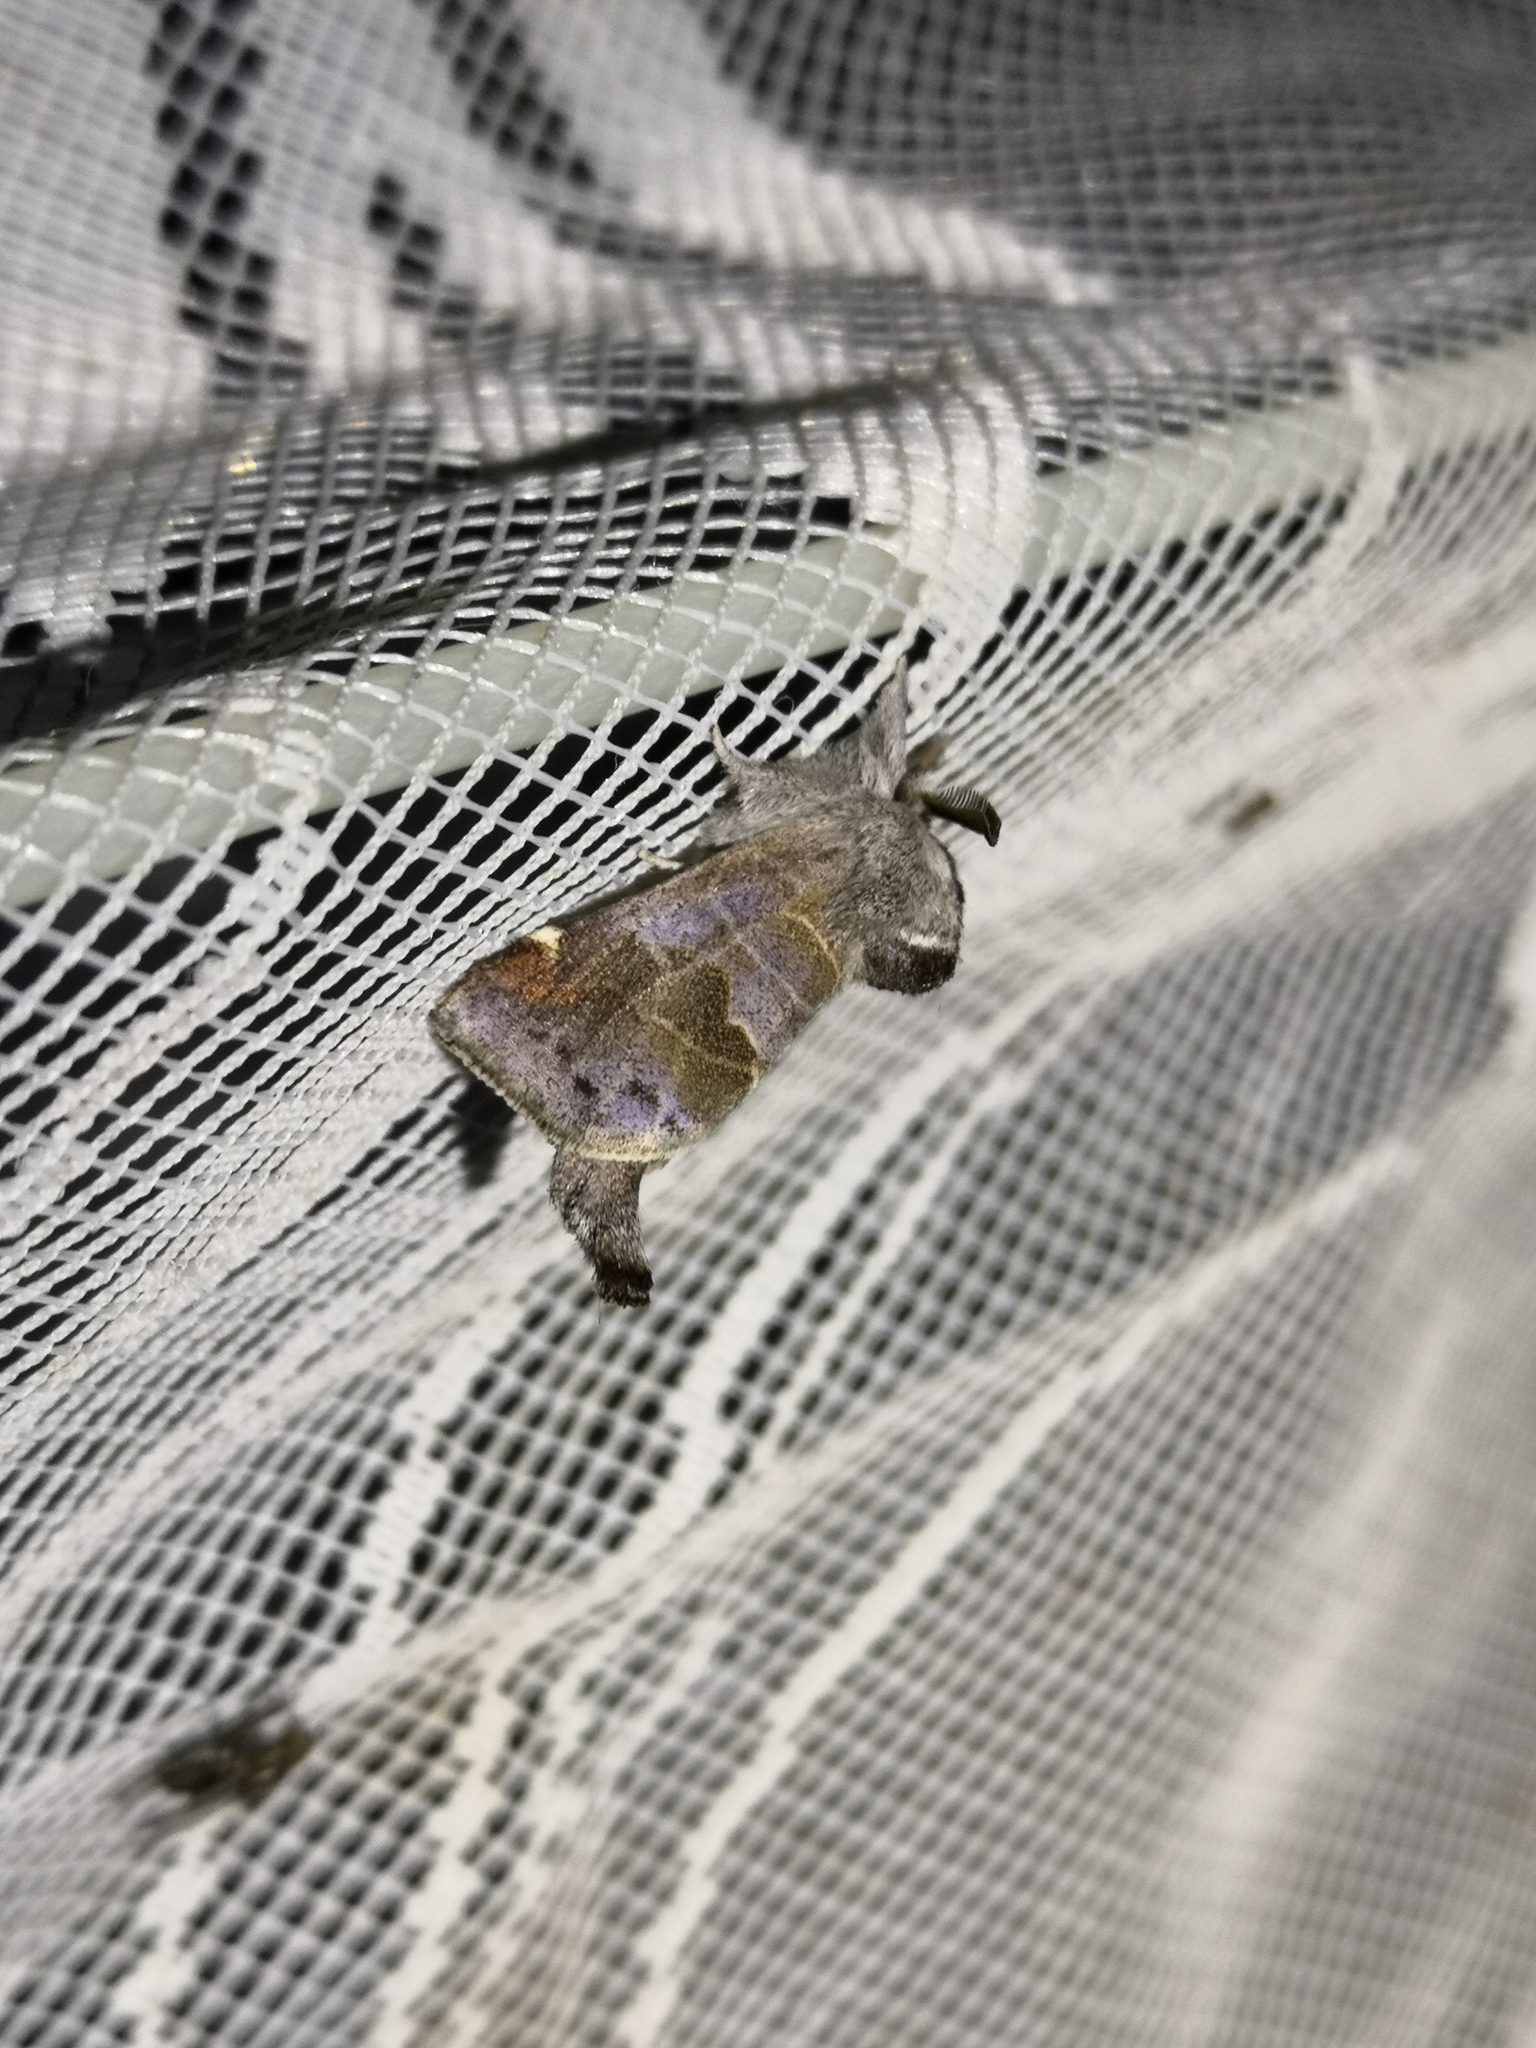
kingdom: Animalia
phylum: Arthropoda
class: Insecta
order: Lepidoptera
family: Notodontidae
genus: Clostera
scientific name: Clostera pigra
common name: Small chocolate-tip
